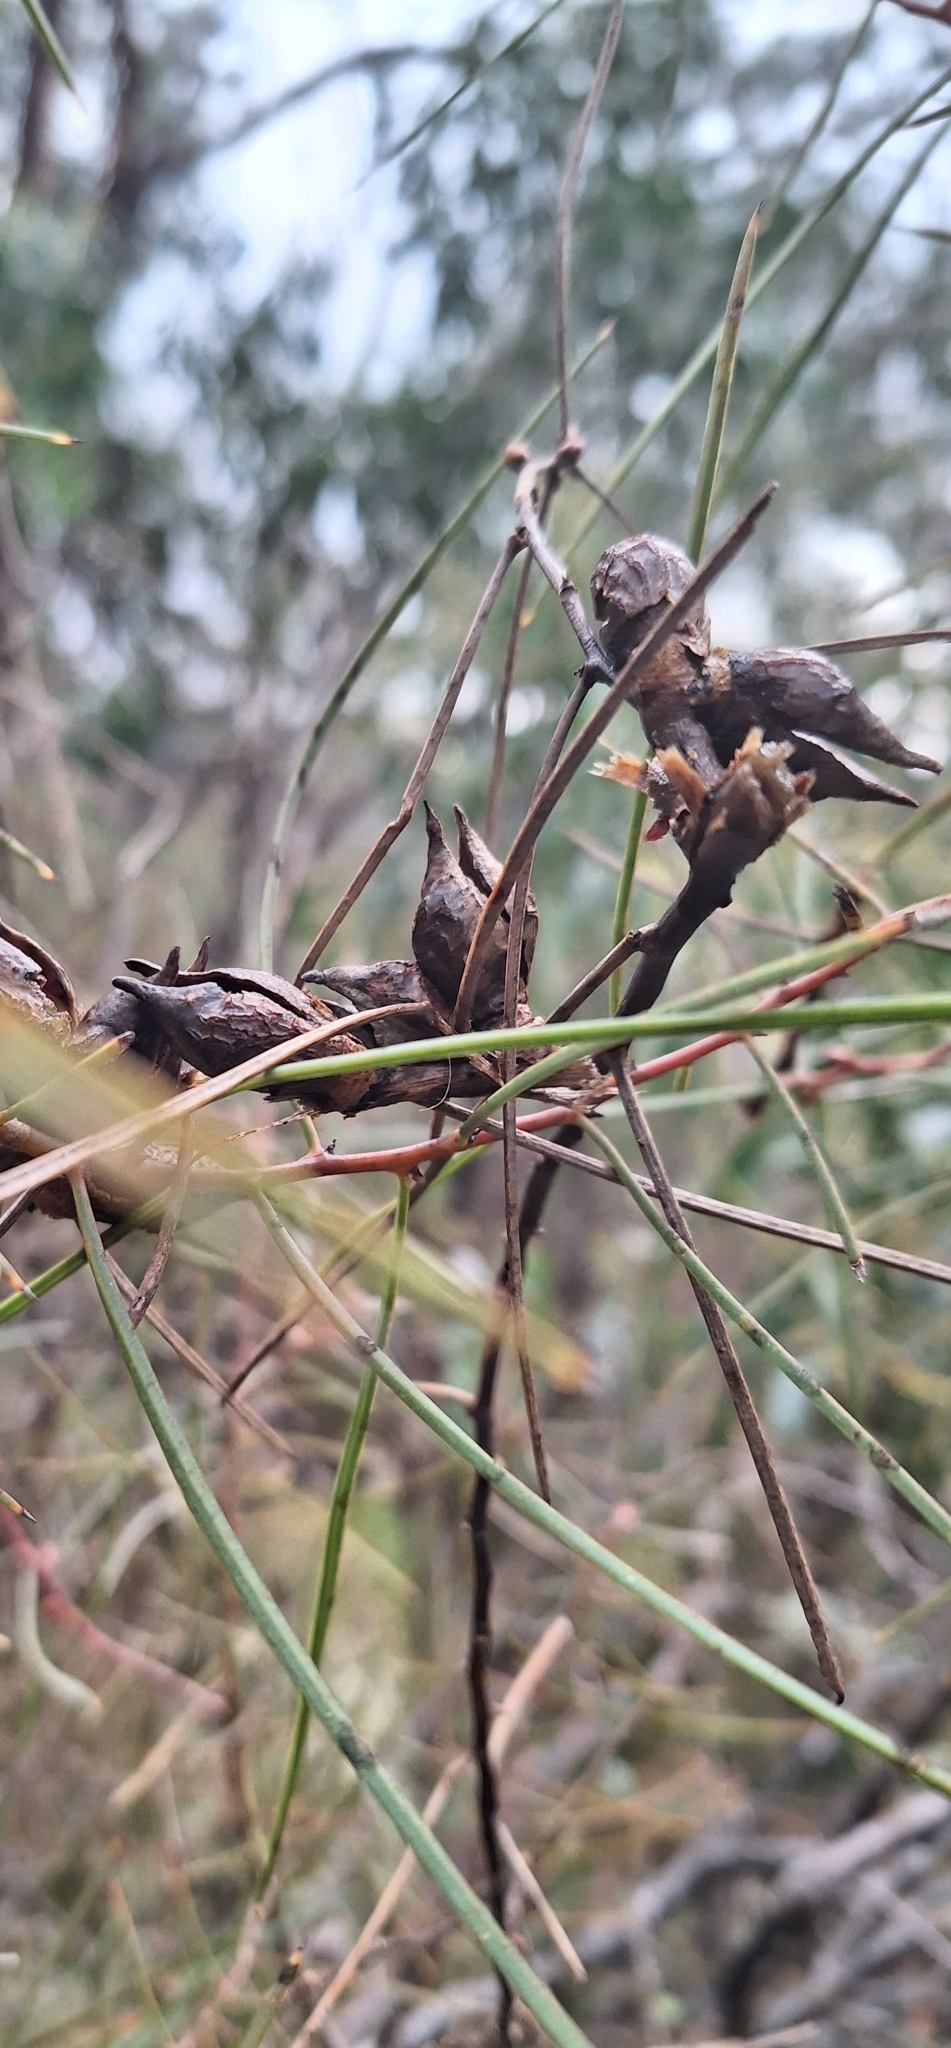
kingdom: Plantae
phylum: Tracheophyta
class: Magnoliopsida
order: Proteales
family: Proteaceae
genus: Hakea
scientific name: Hakea carinata
